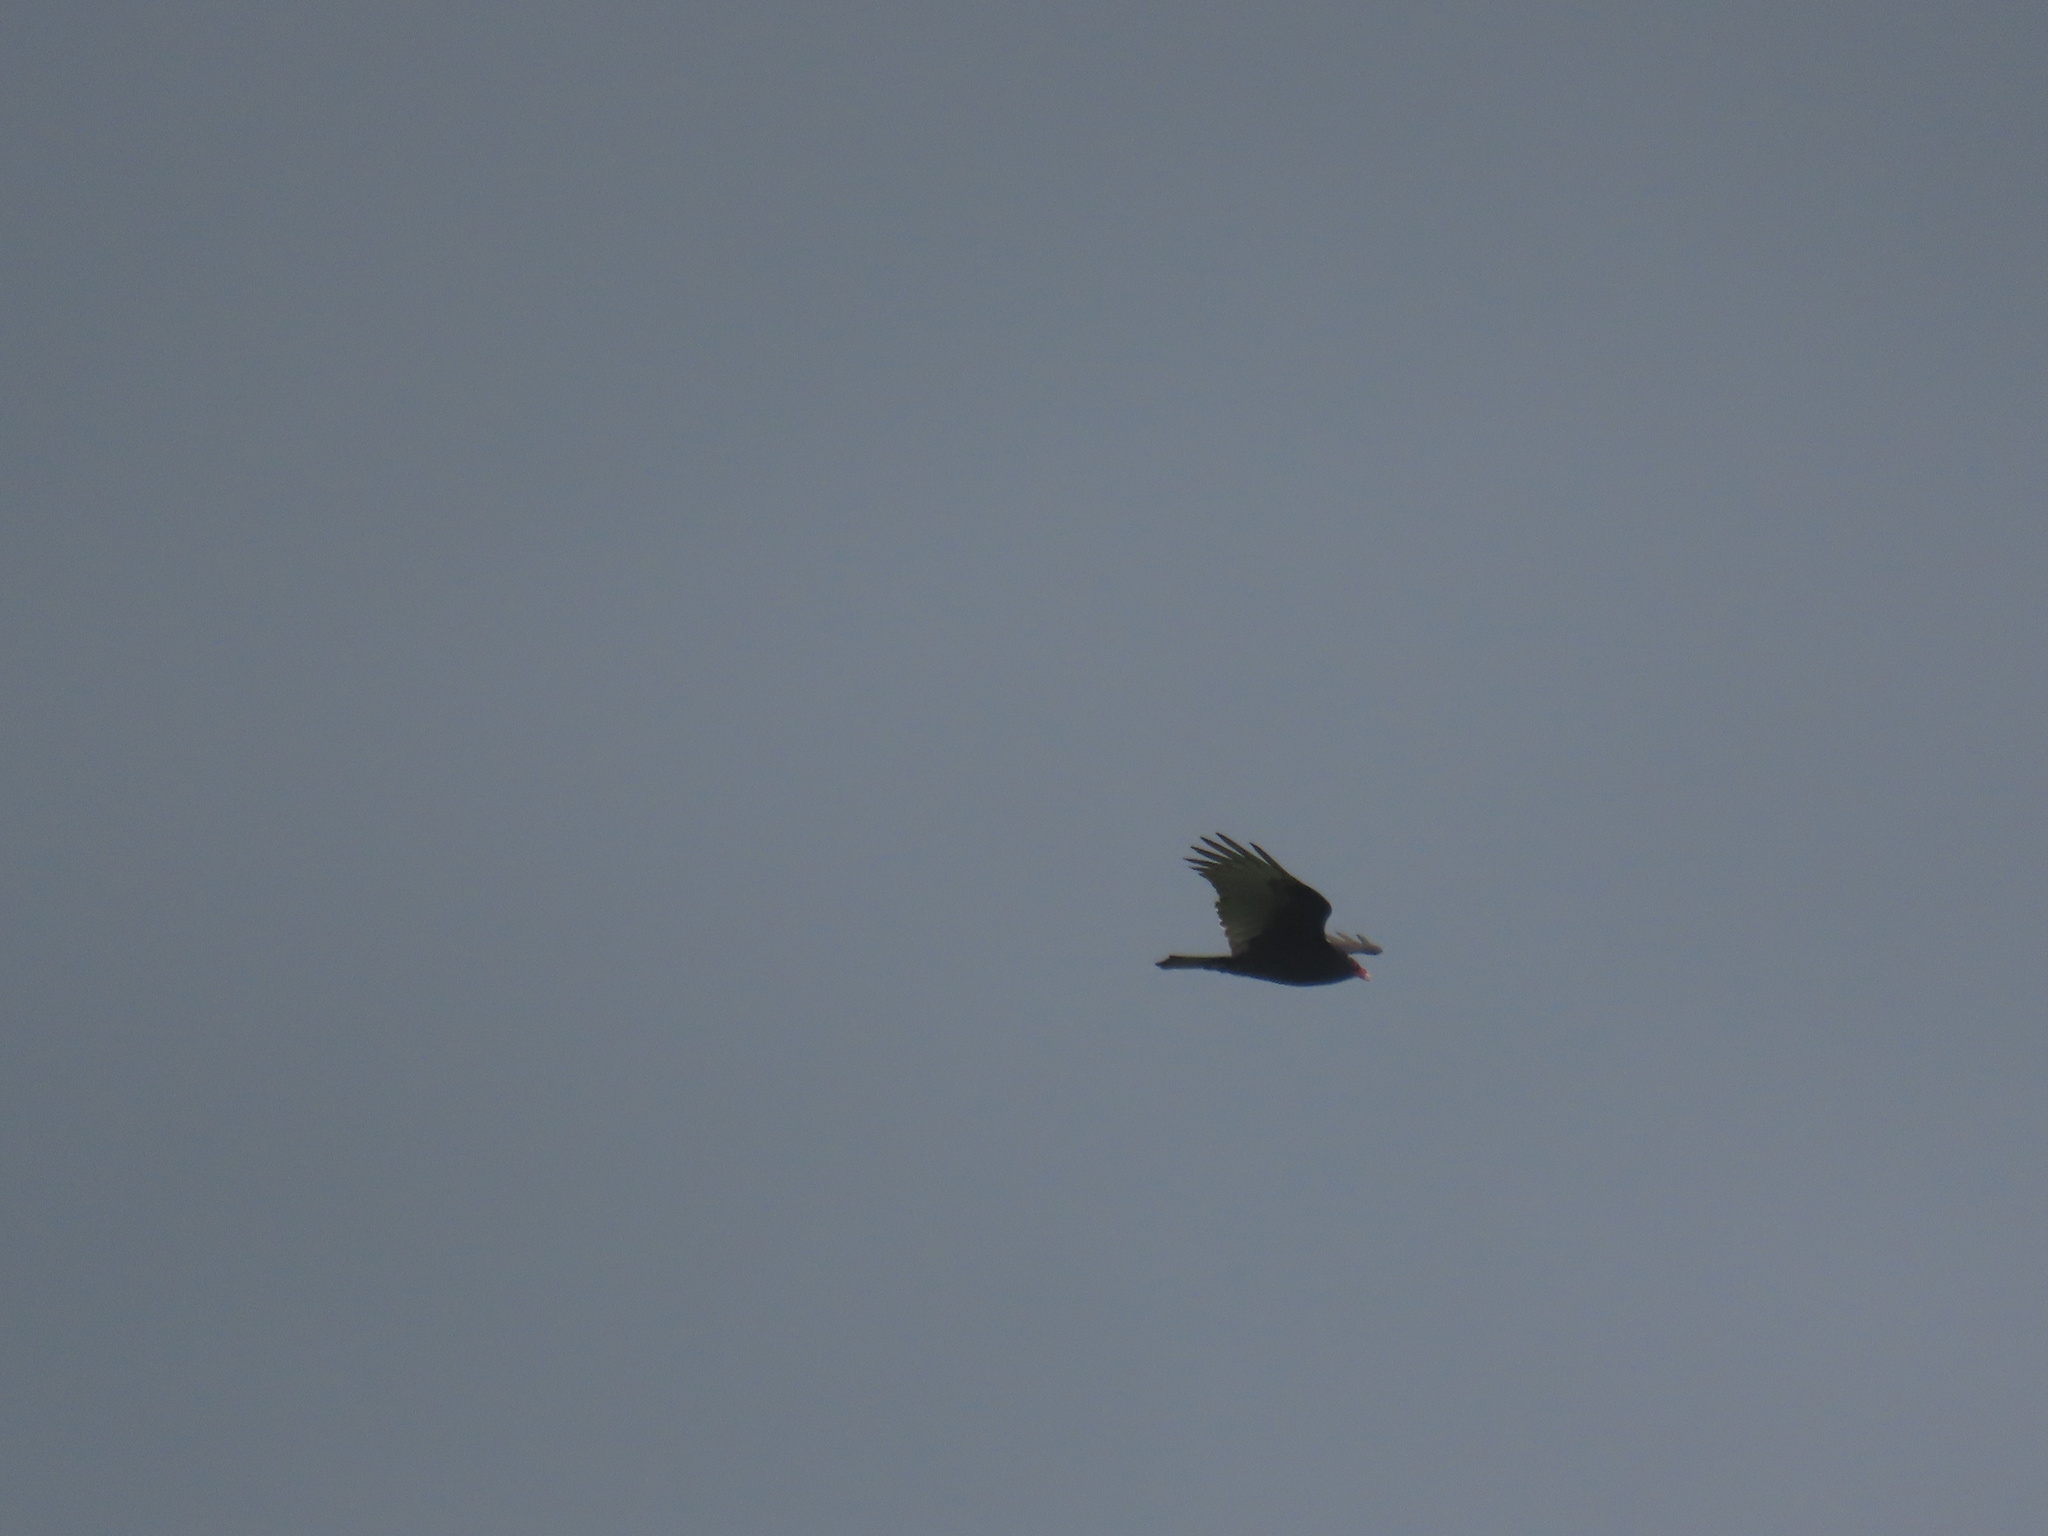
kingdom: Animalia
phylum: Chordata
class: Aves
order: Accipitriformes
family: Cathartidae
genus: Cathartes
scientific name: Cathartes aura
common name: Turkey vulture
